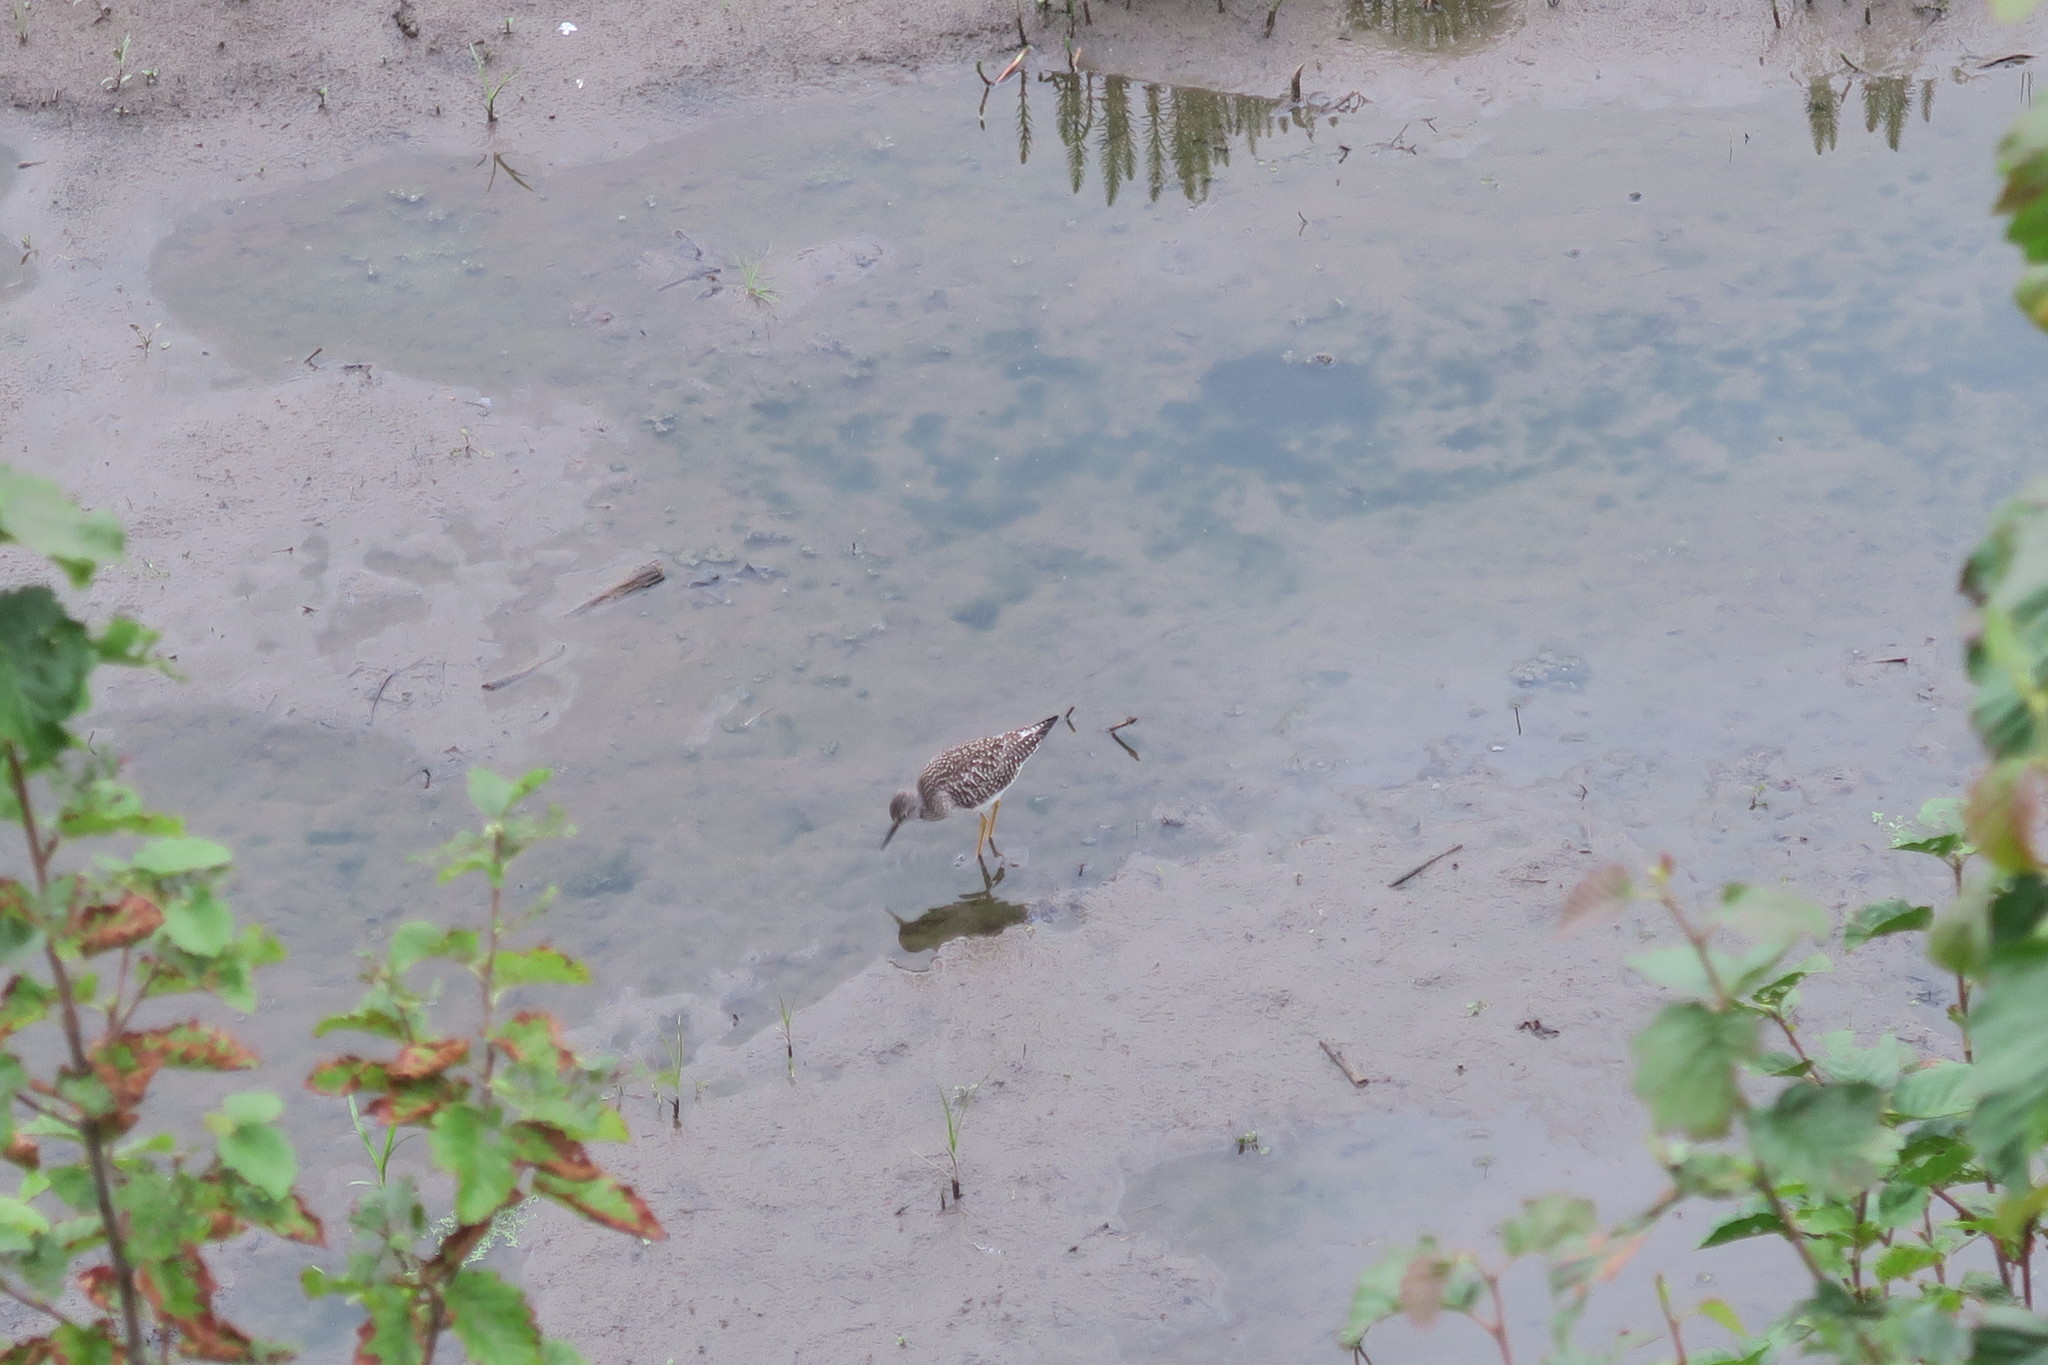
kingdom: Animalia
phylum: Chordata
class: Aves
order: Charadriiformes
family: Scolopacidae
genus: Tringa
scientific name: Tringa flavipes
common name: Lesser yellowlegs
